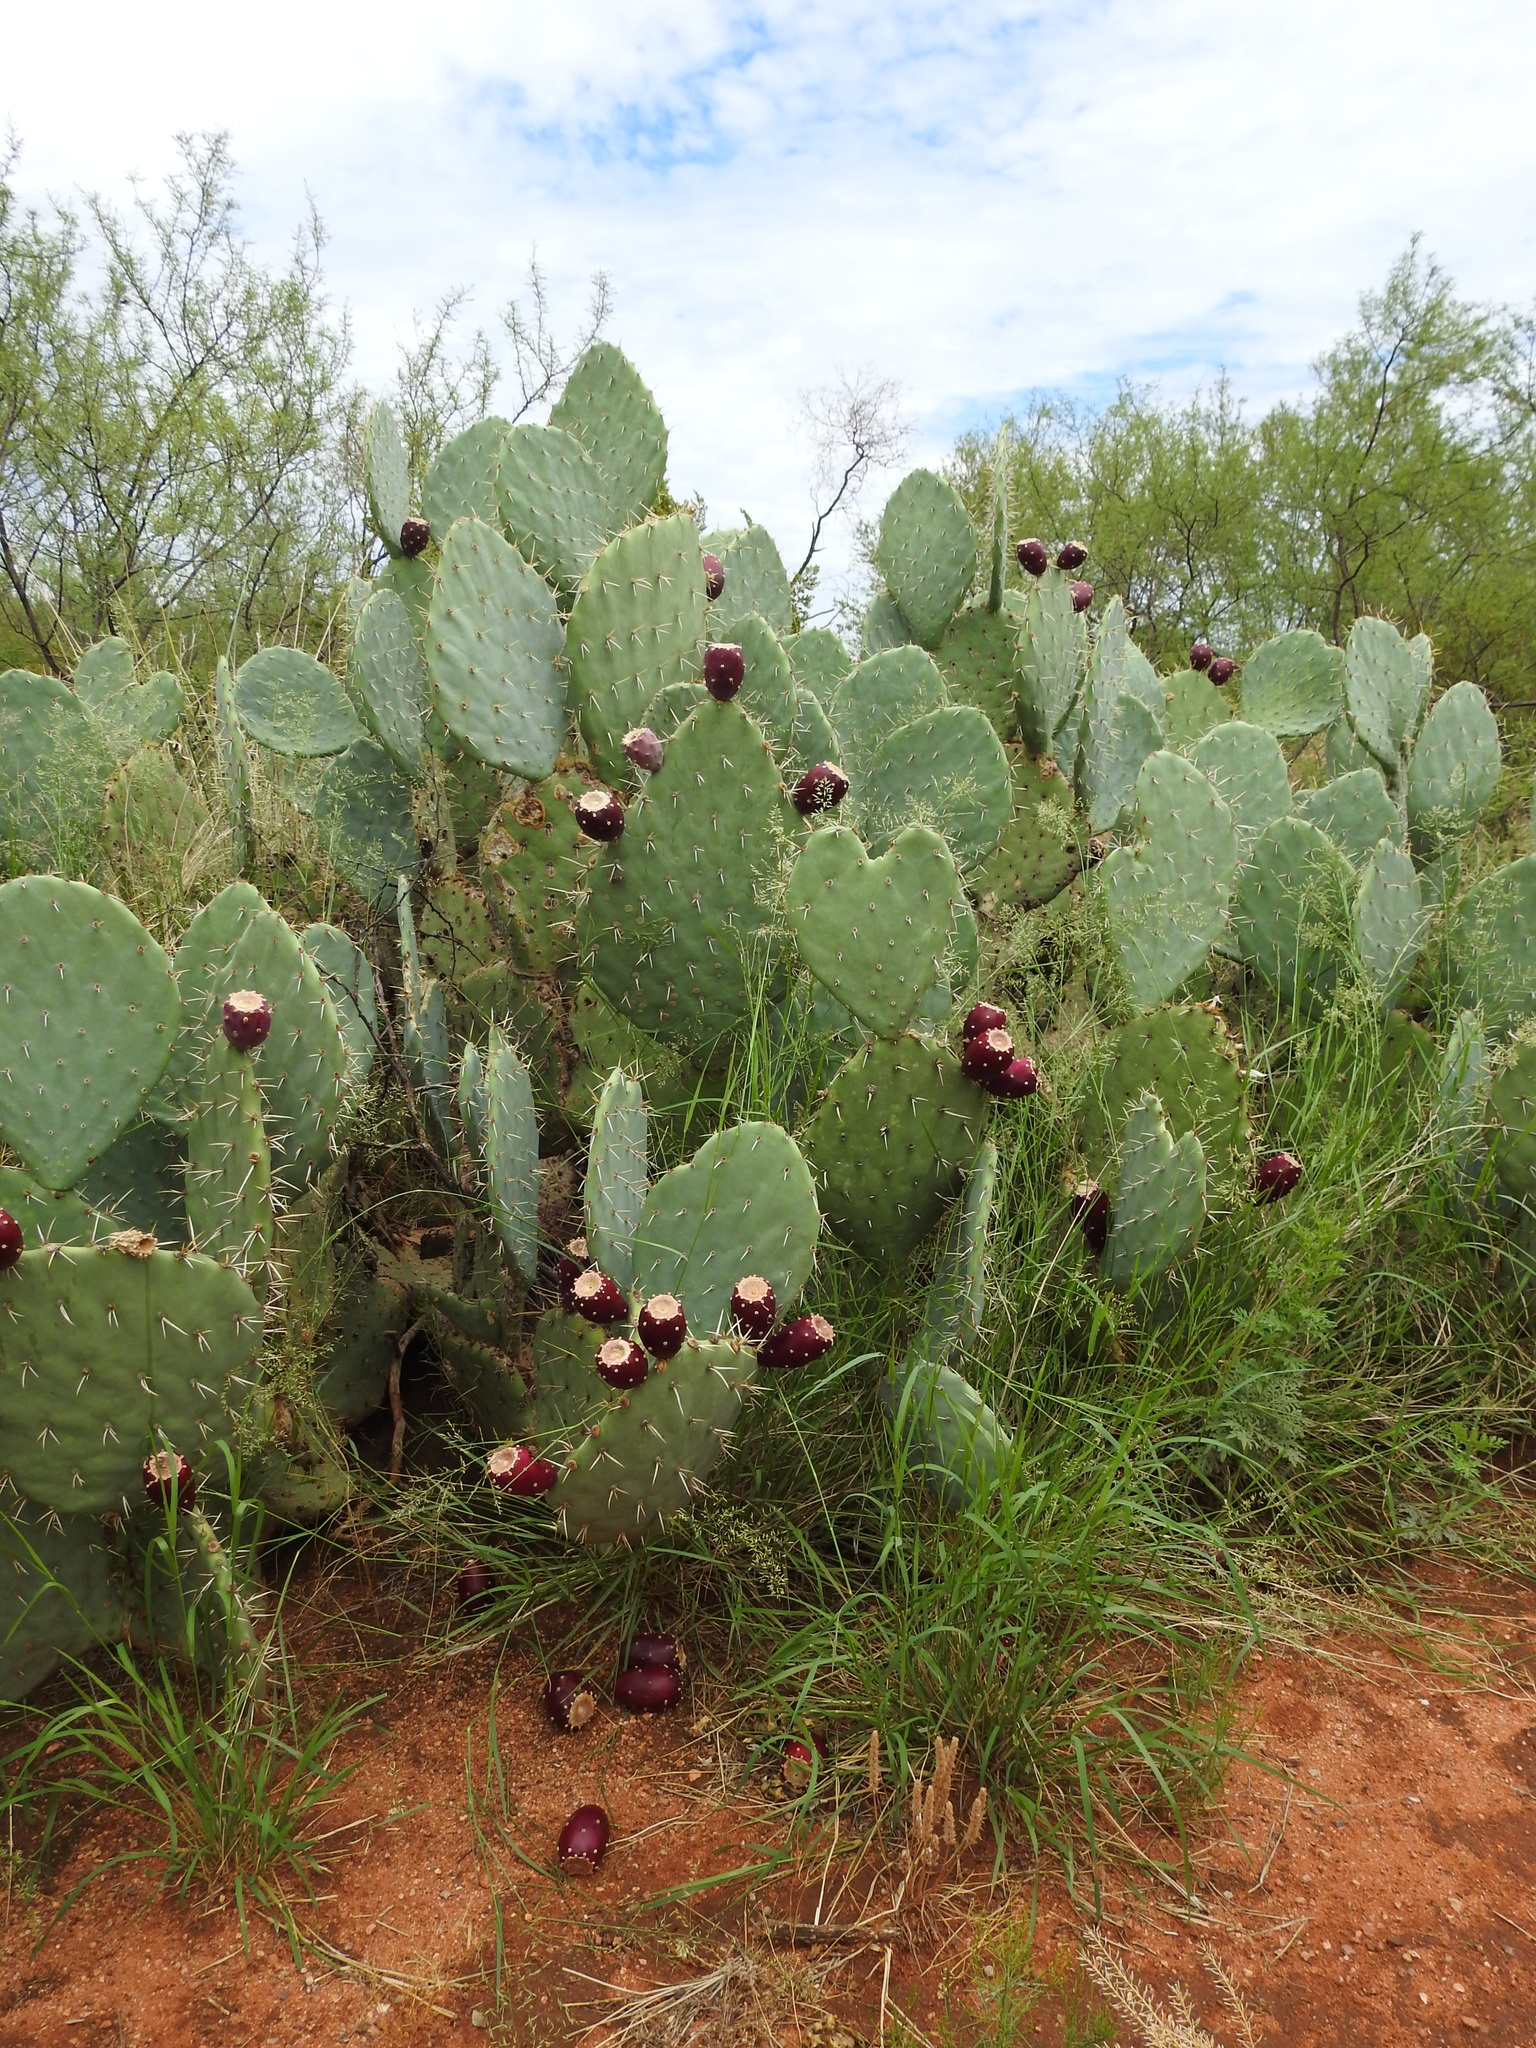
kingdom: Plantae
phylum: Tracheophyta
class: Magnoliopsida
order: Caryophyllales
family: Cactaceae
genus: Opuntia
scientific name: Opuntia engelmannii
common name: Cactus-apple
